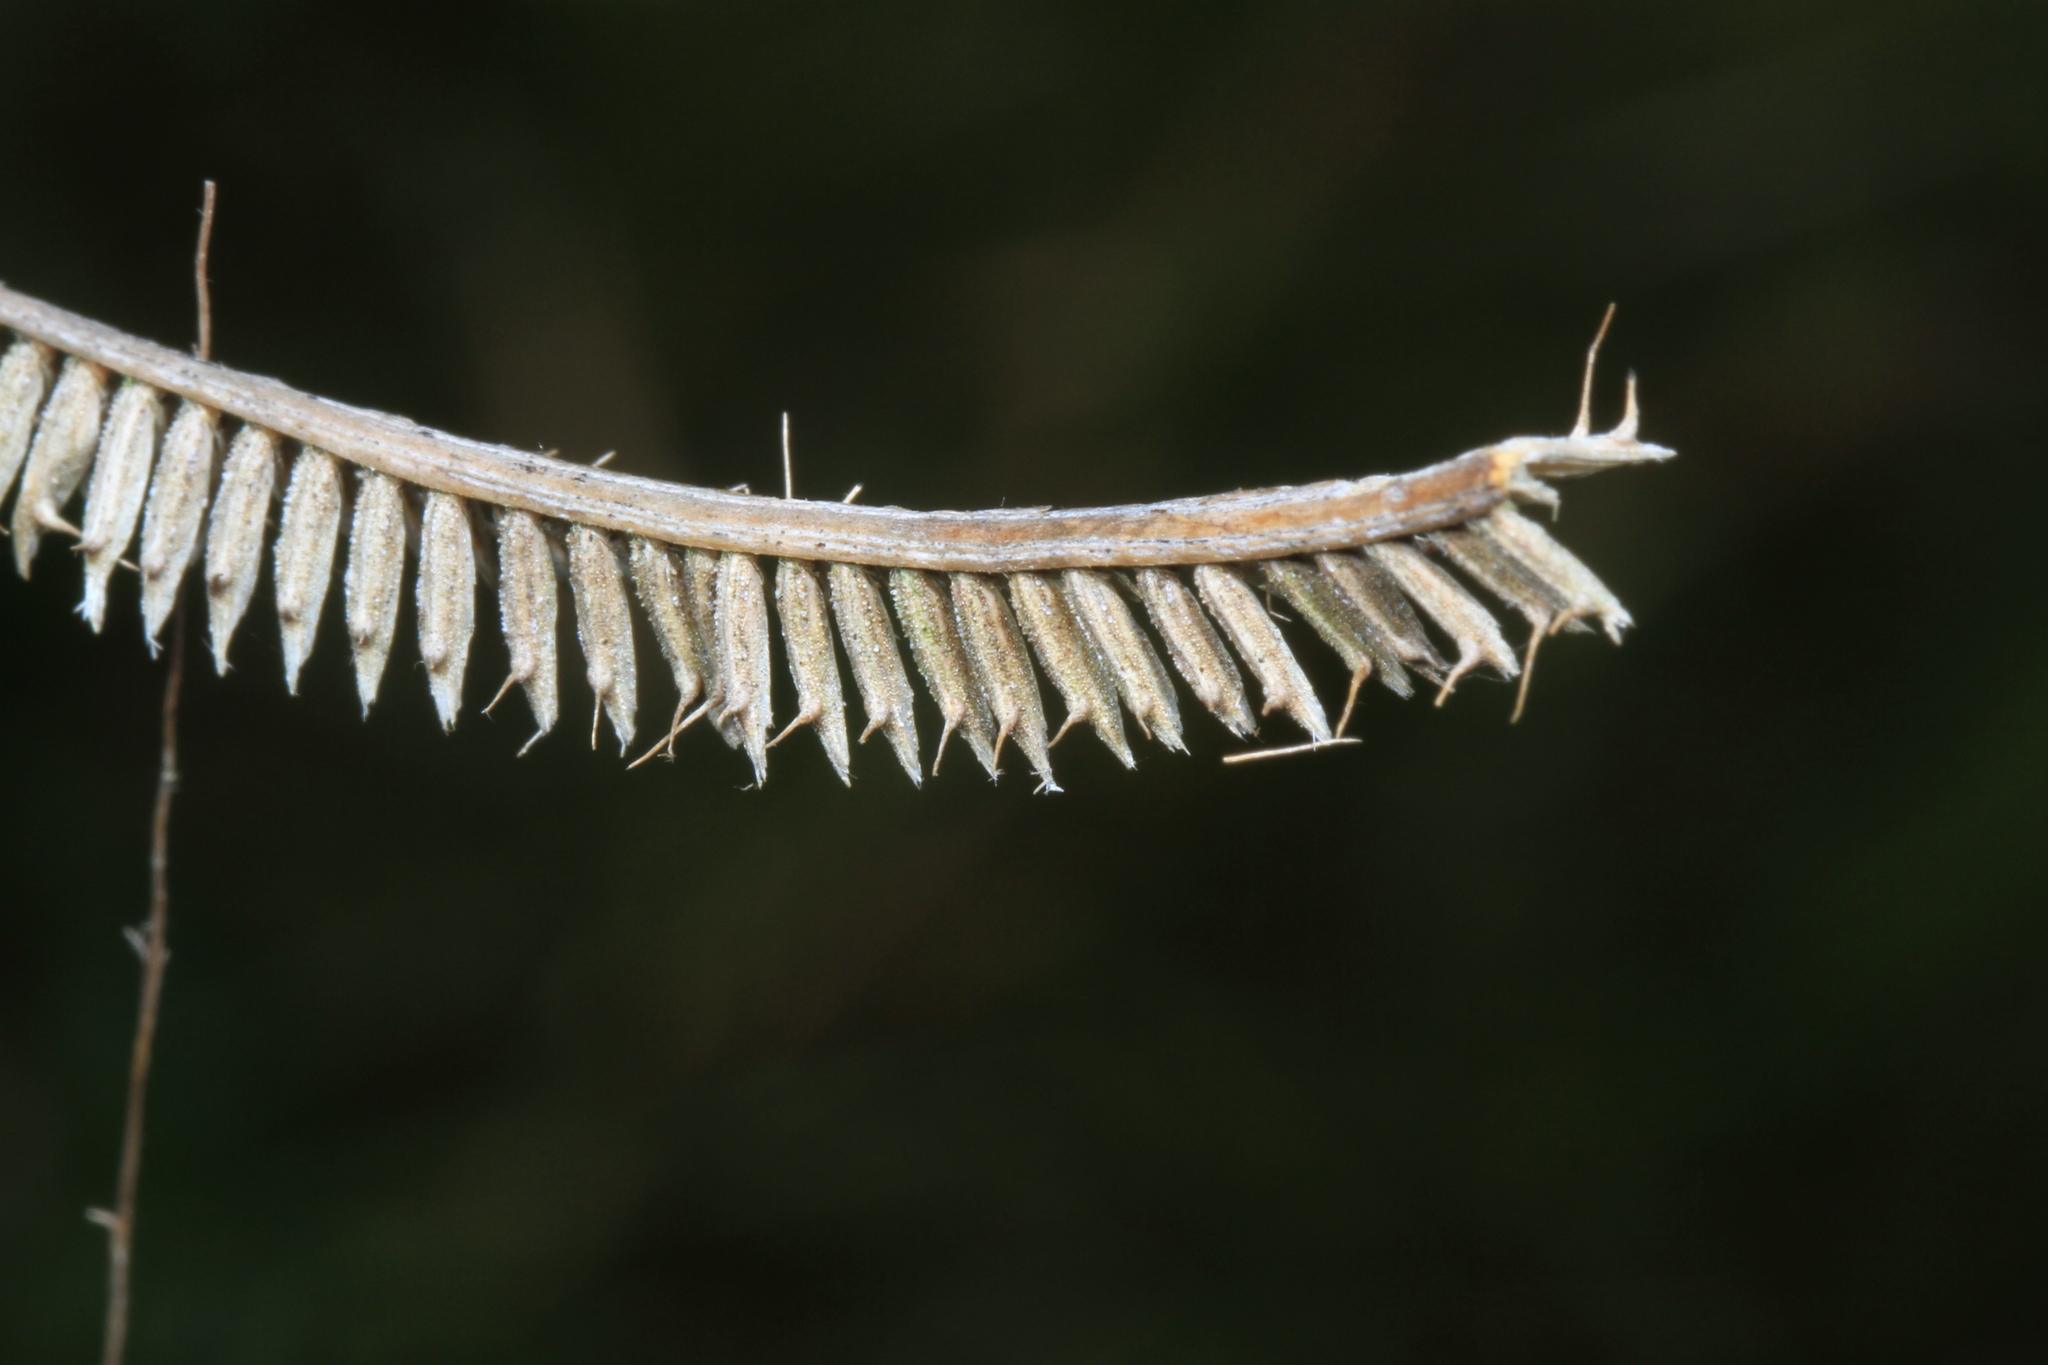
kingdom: Plantae
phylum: Tracheophyta
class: Liliopsida
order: Poales
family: Poaceae
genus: Ctenium
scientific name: Ctenium aromaticum
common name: Toothache grass
